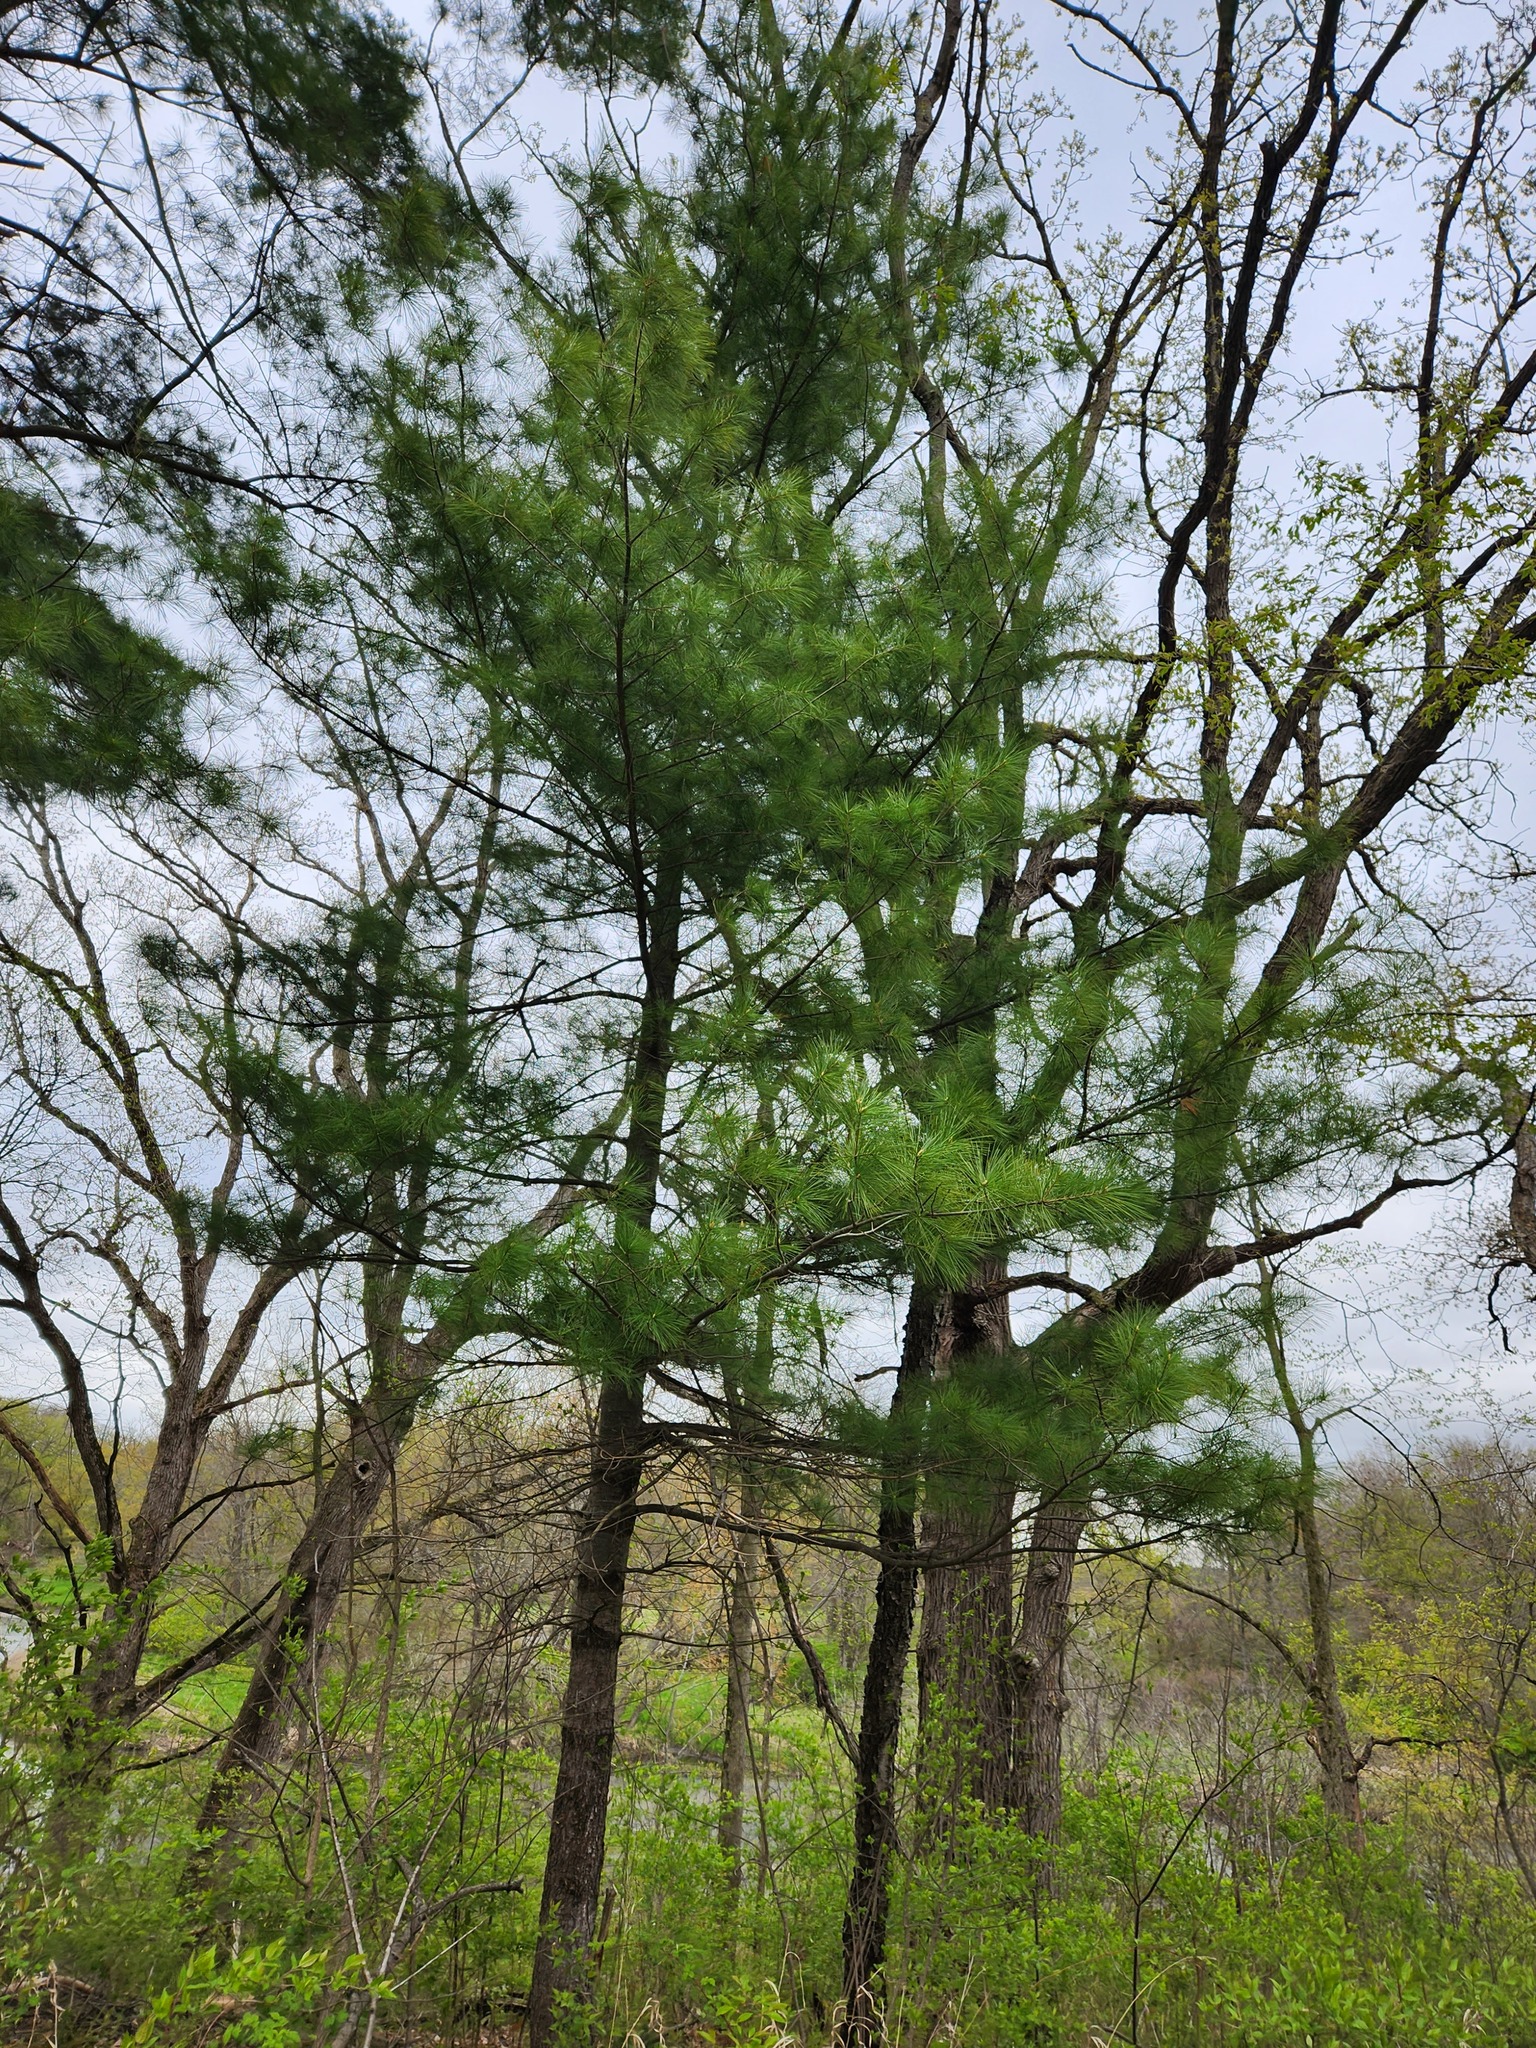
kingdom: Plantae
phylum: Tracheophyta
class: Pinopsida
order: Pinales
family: Pinaceae
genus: Pinus
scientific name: Pinus strobus
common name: Weymouth pine
